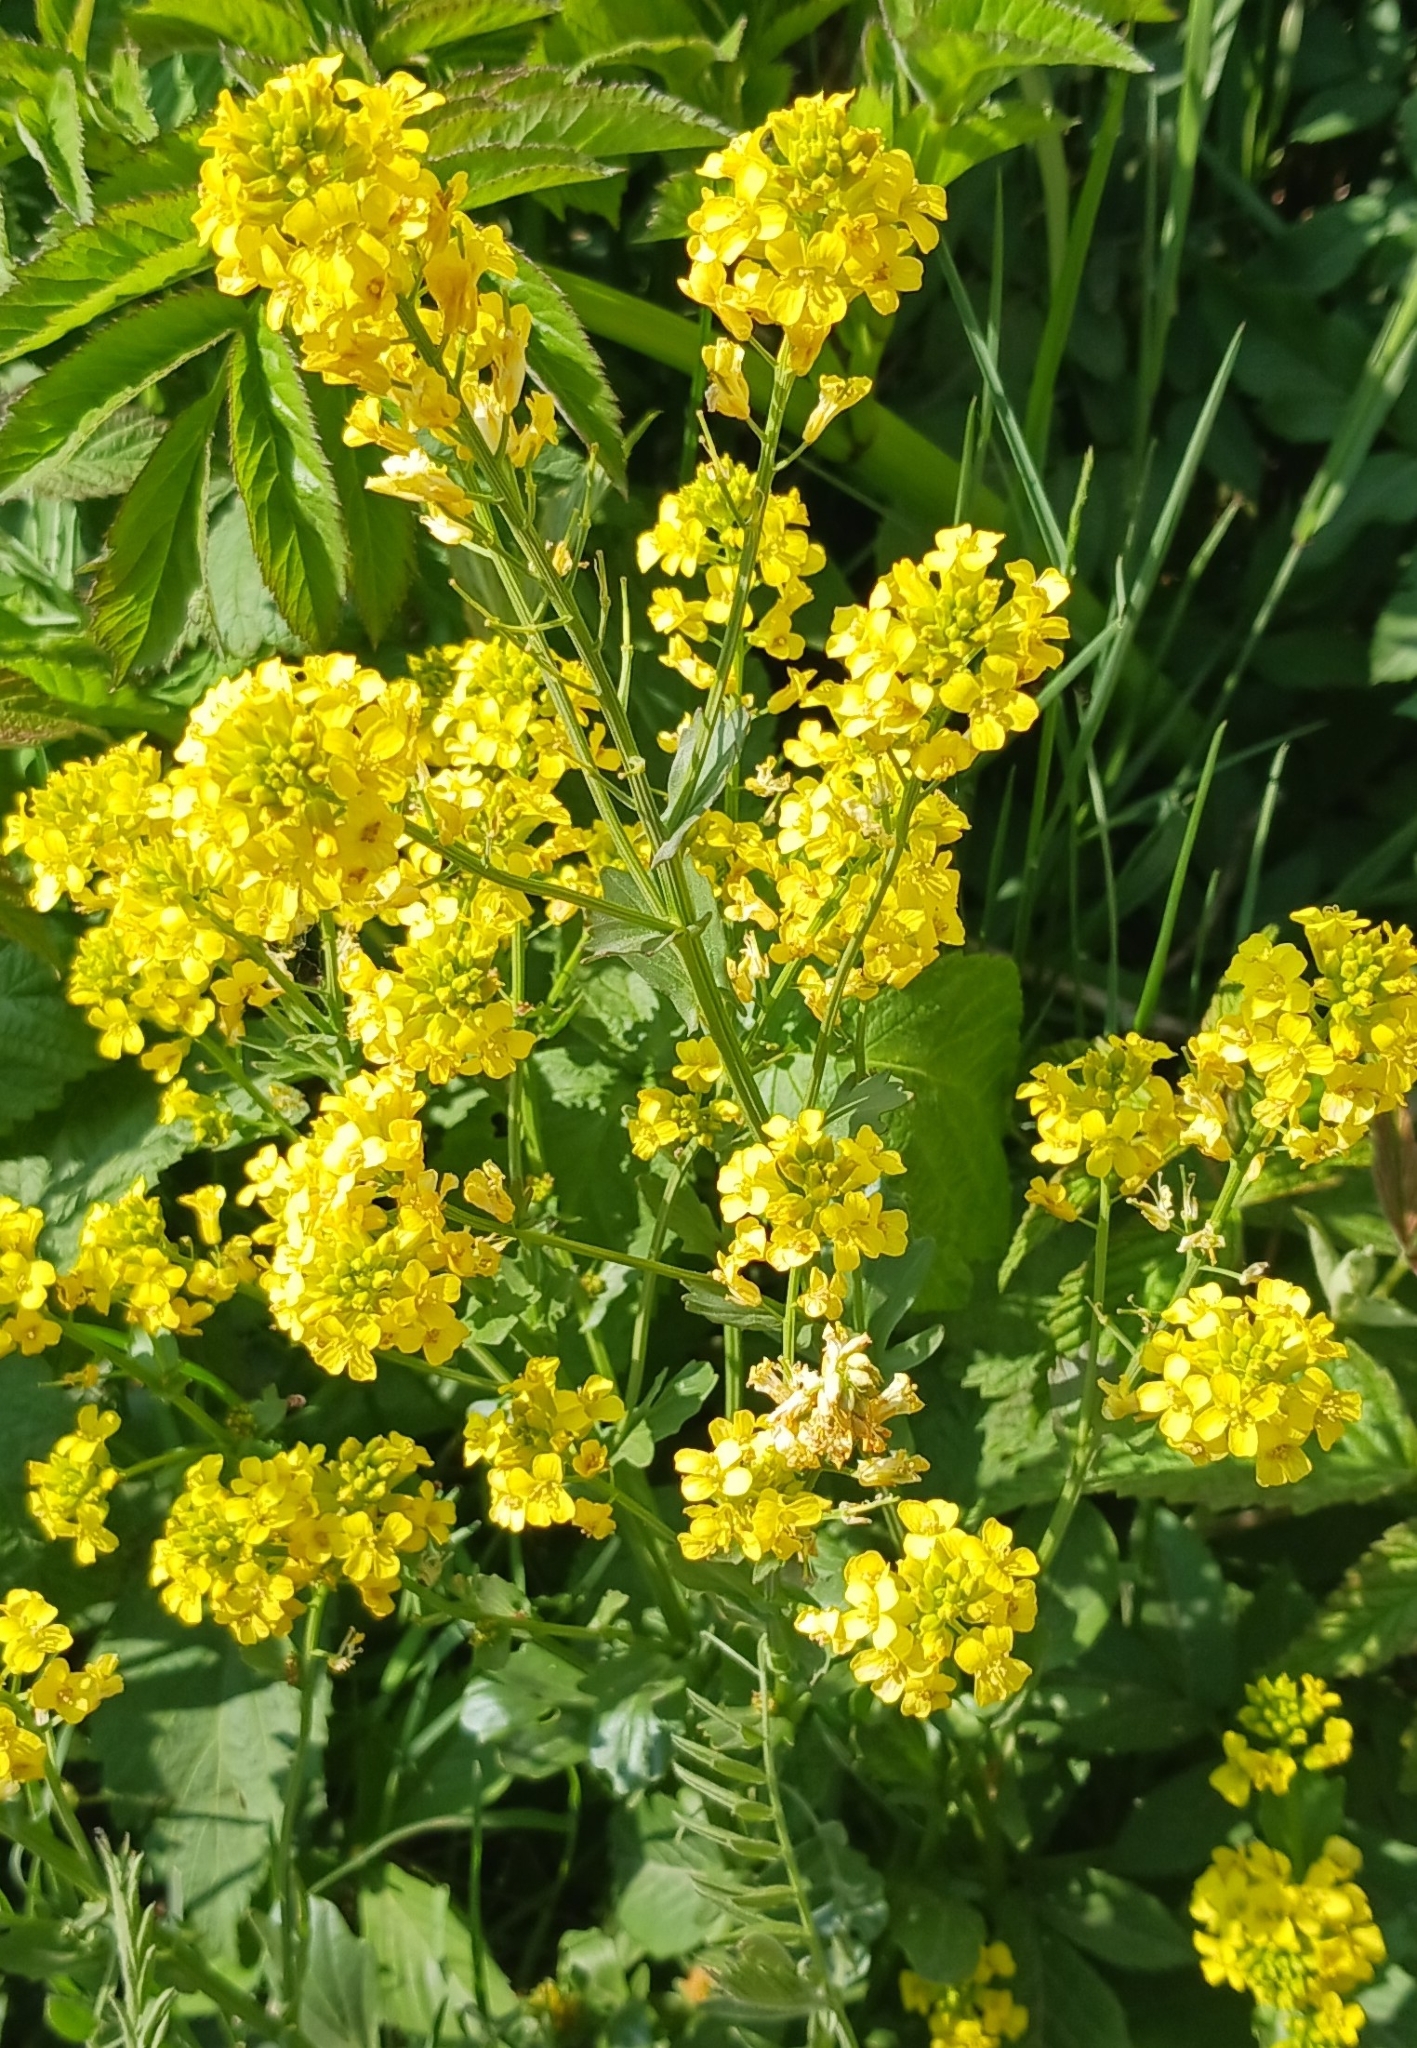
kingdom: Plantae
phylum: Tracheophyta
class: Magnoliopsida
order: Brassicales
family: Brassicaceae
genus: Barbarea
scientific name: Barbarea vulgaris
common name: Cressy-greens
